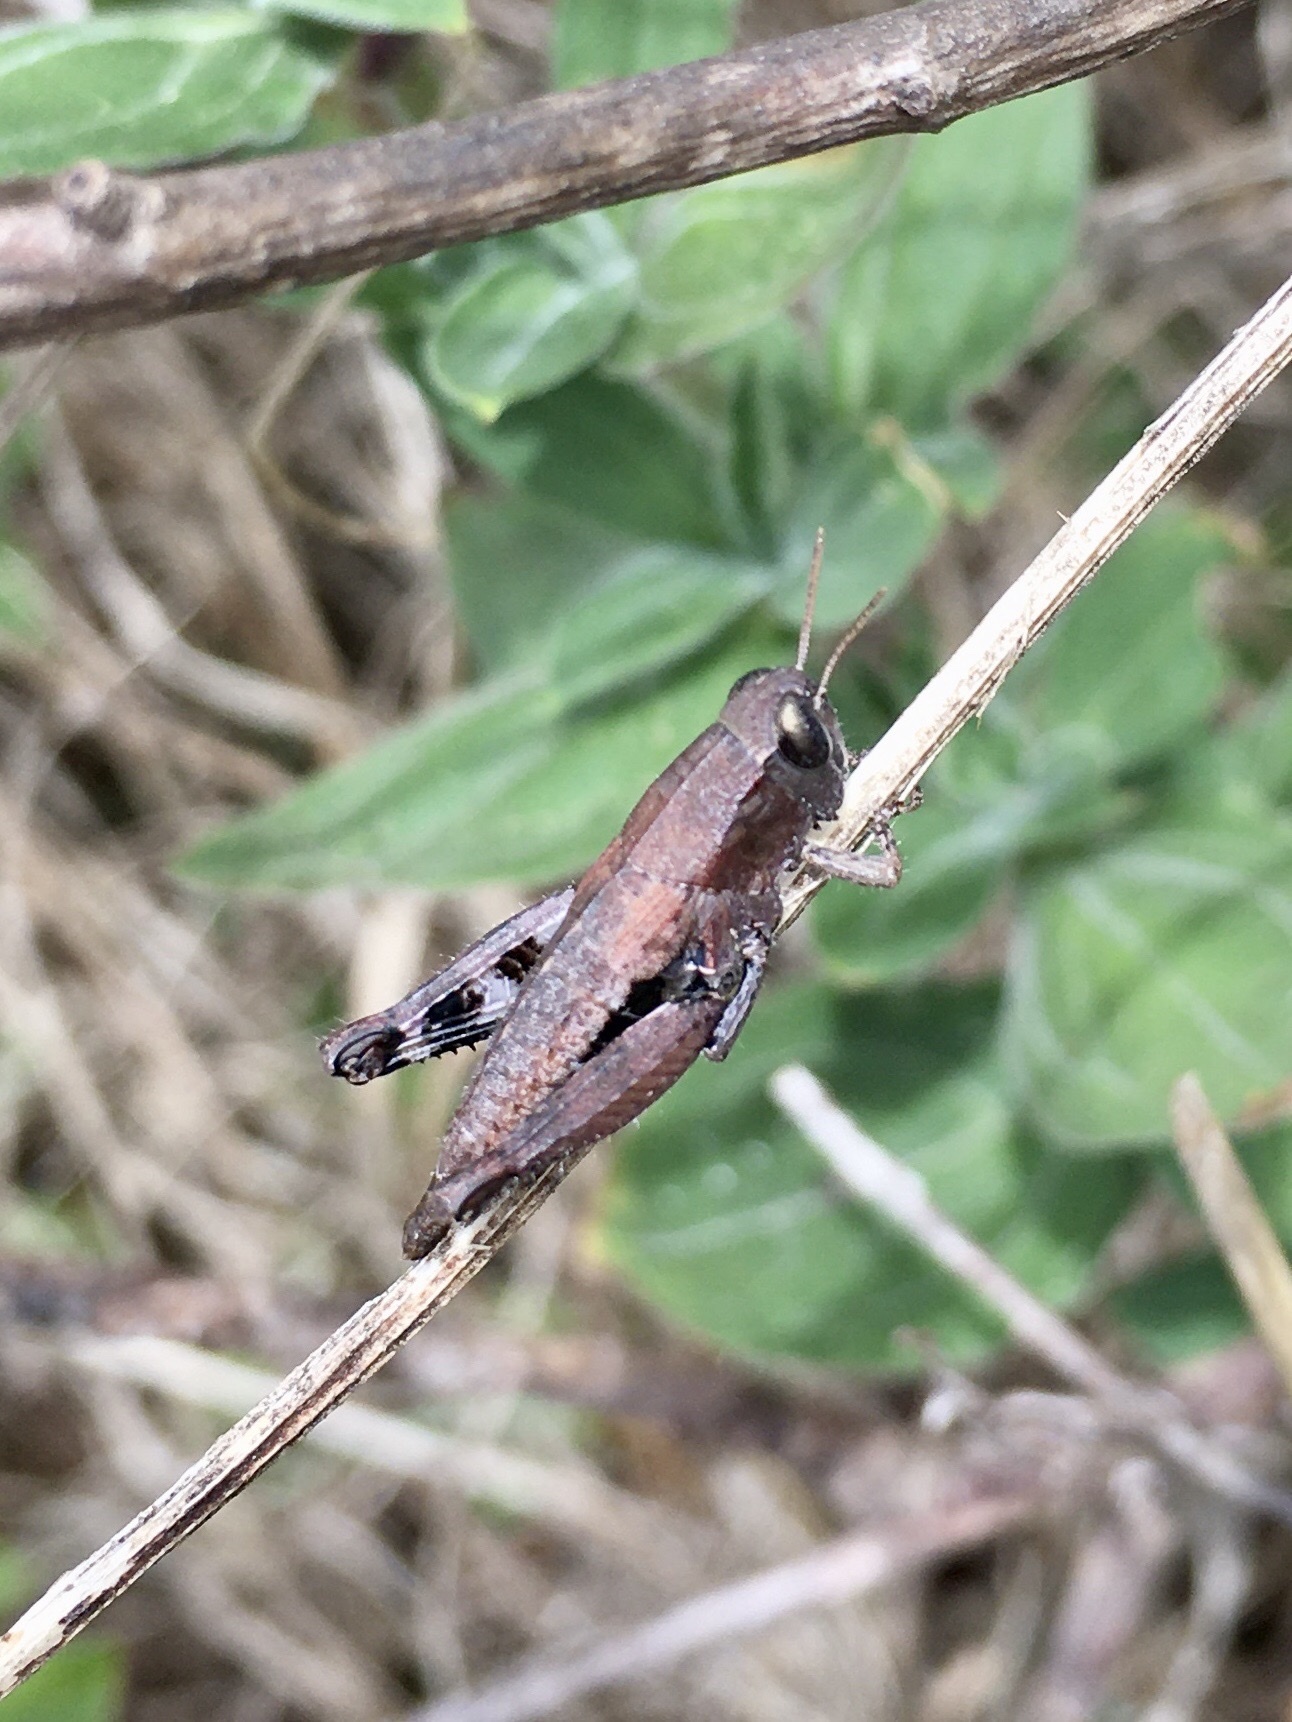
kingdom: Animalia
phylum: Arthropoda
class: Insecta
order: Orthoptera
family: Acrididae
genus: Pezotettix
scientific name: Pezotettix giornae
